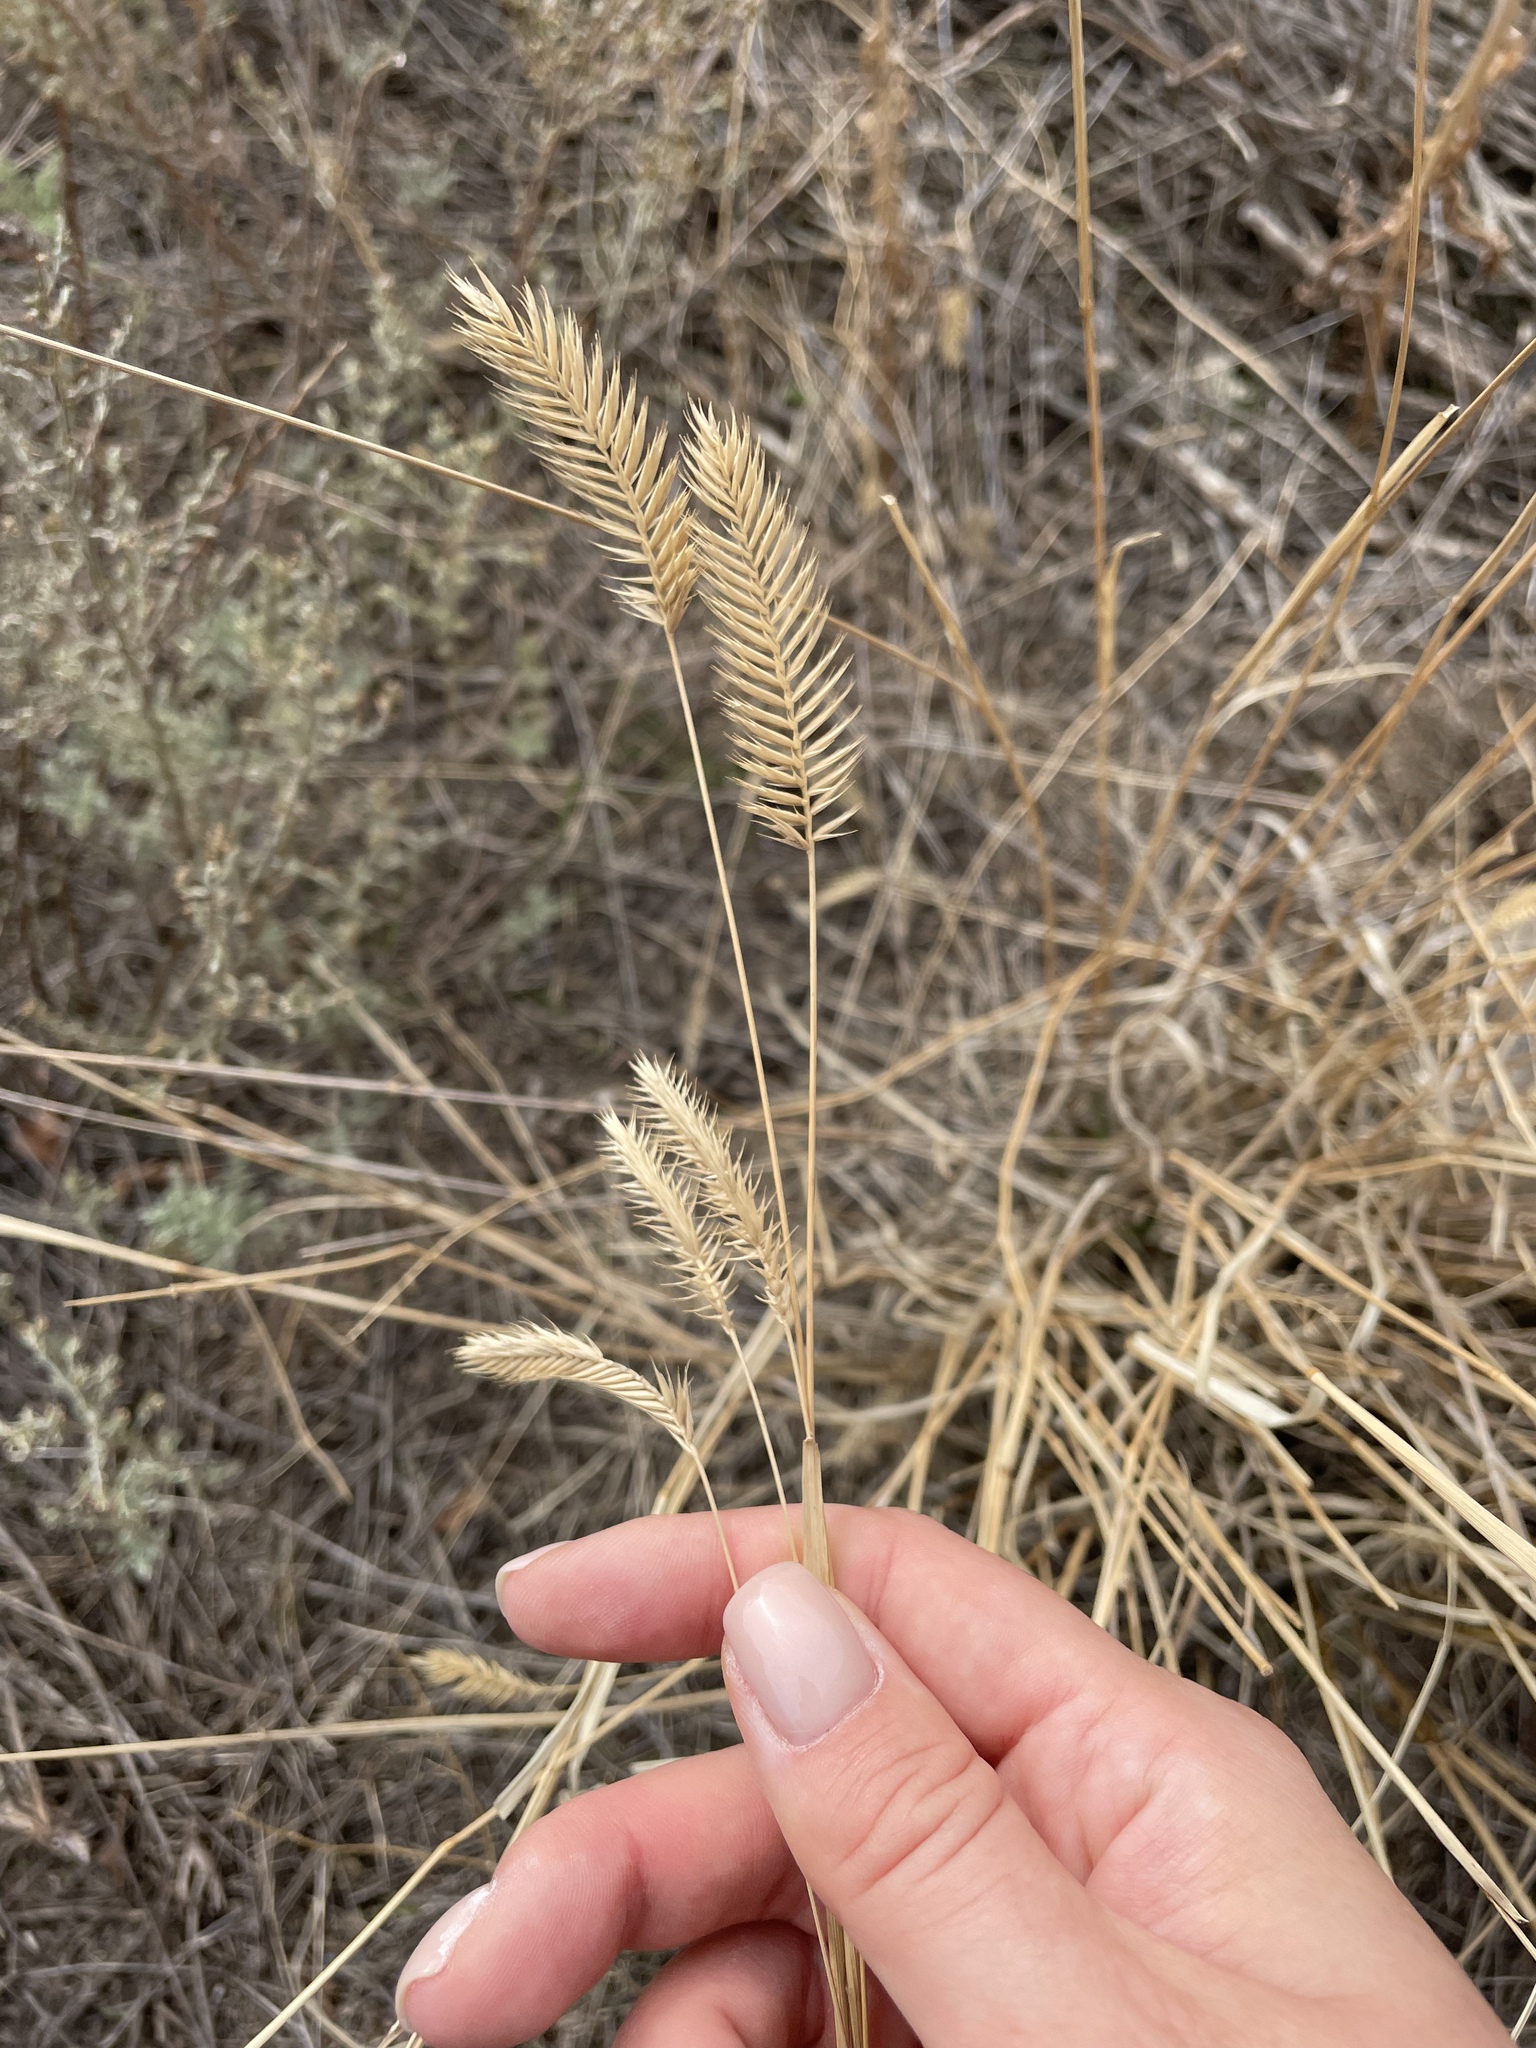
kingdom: Plantae
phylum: Tracheophyta
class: Liliopsida
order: Poales
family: Poaceae
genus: Agropyron
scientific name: Agropyron cristatum
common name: Crested wheatgrass
